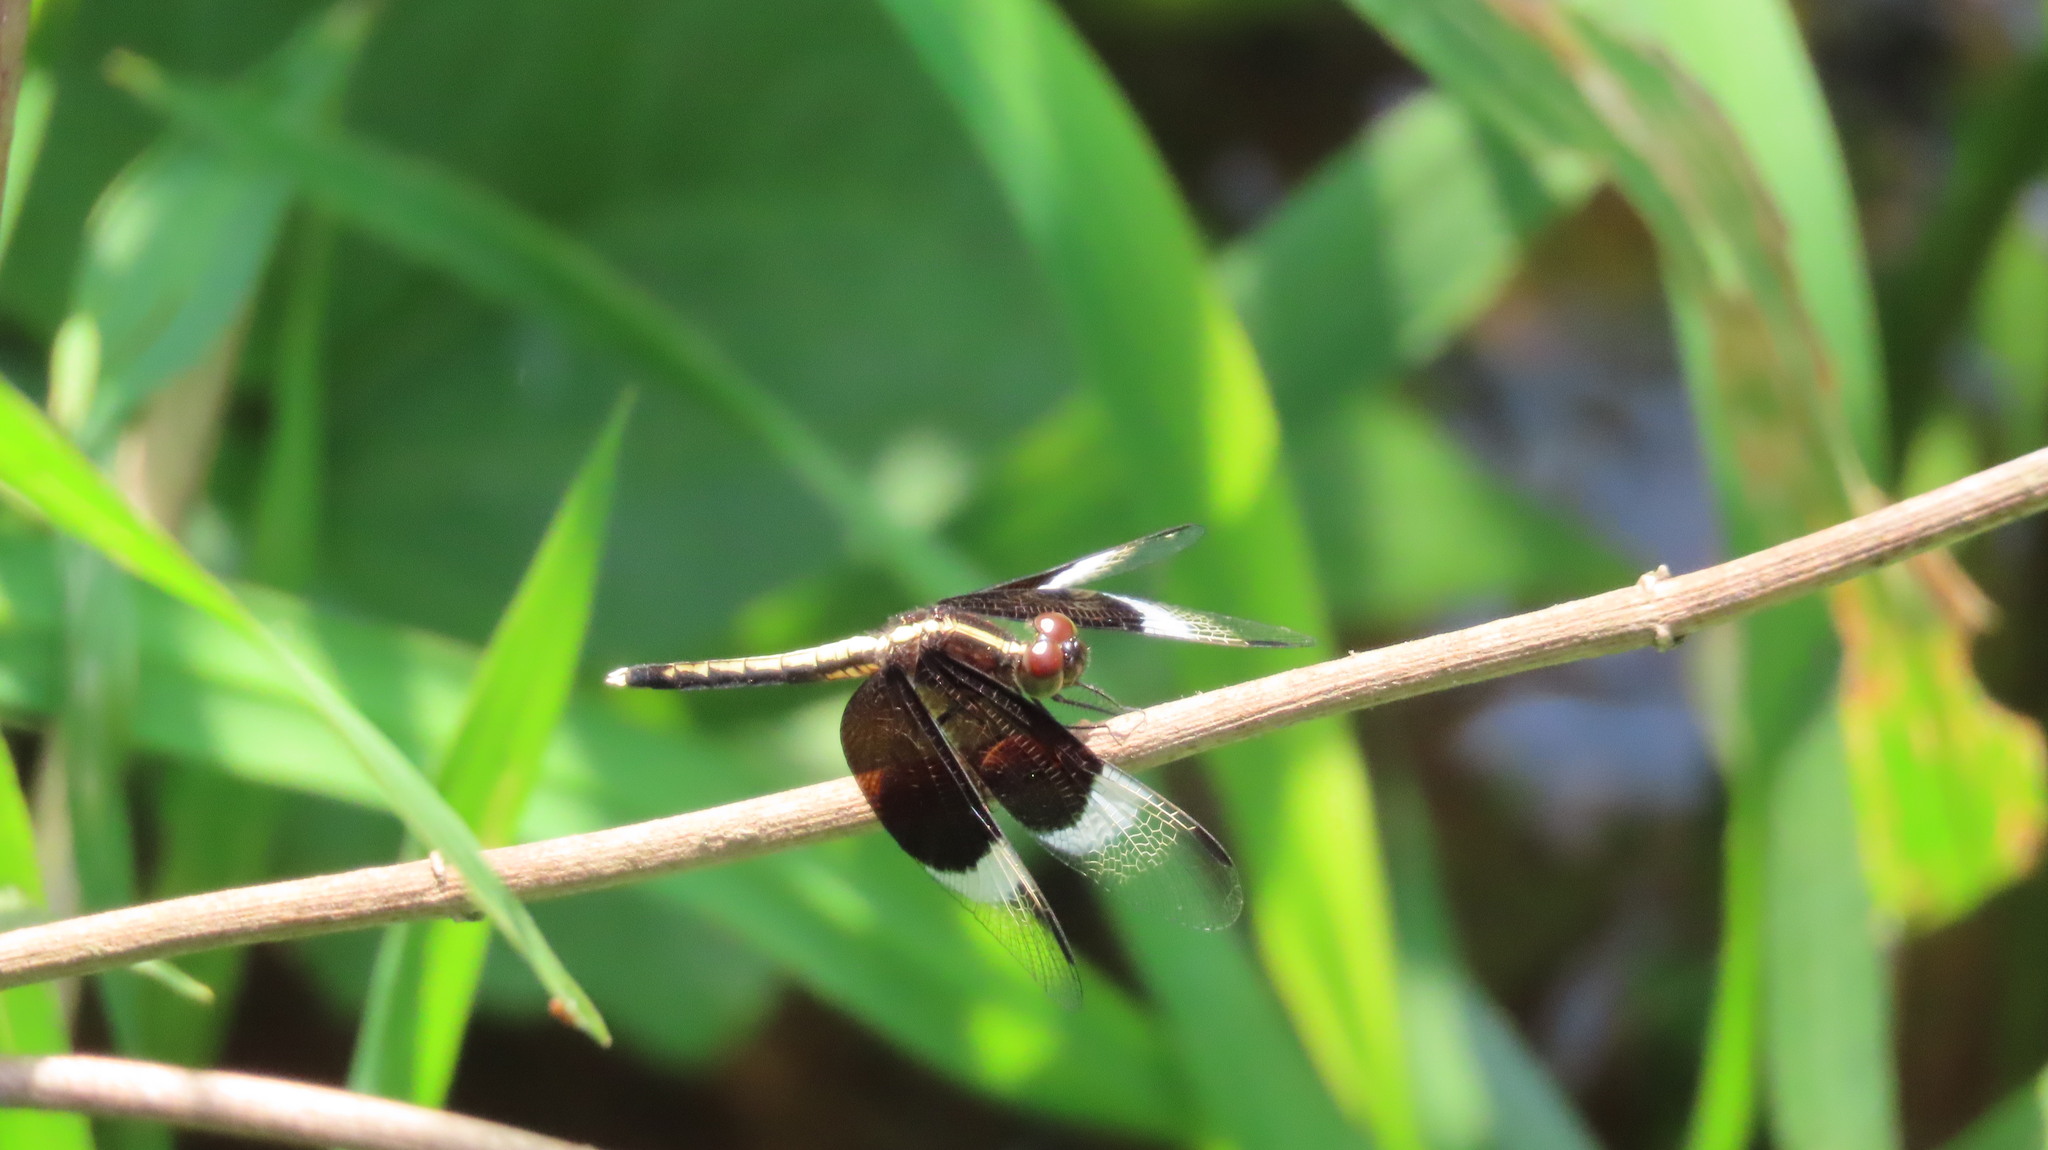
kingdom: Animalia
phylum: Arthropoda
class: Insecta
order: Odonata
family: Libellulidae
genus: Neurothemis
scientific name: Neurothemis tullia
